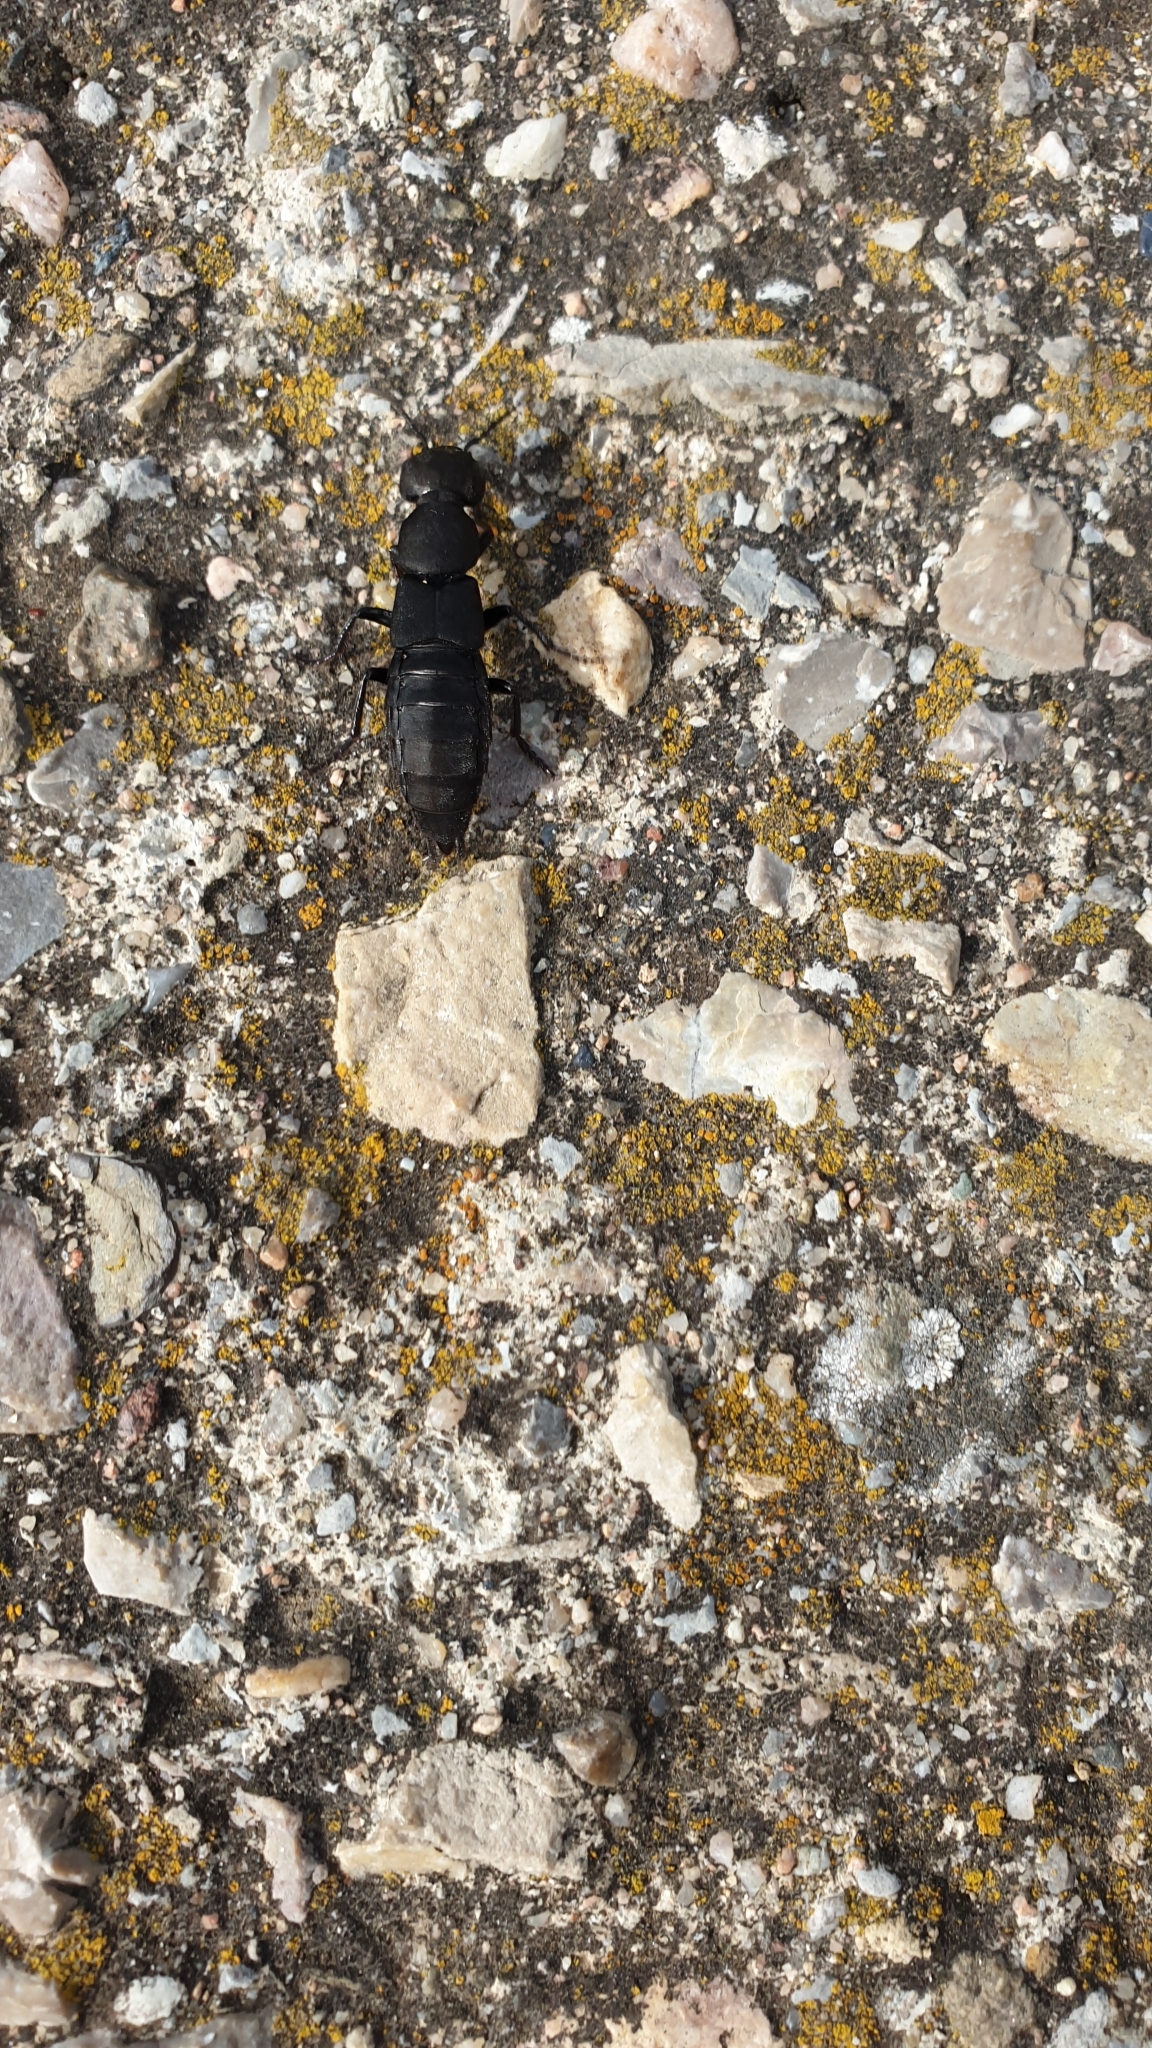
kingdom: Animalia
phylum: Arthropoda
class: Insecta
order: Coleoptera
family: Staphylinidae
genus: Ocypus
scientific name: Ocypus olens
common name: Devil's coach-horse
